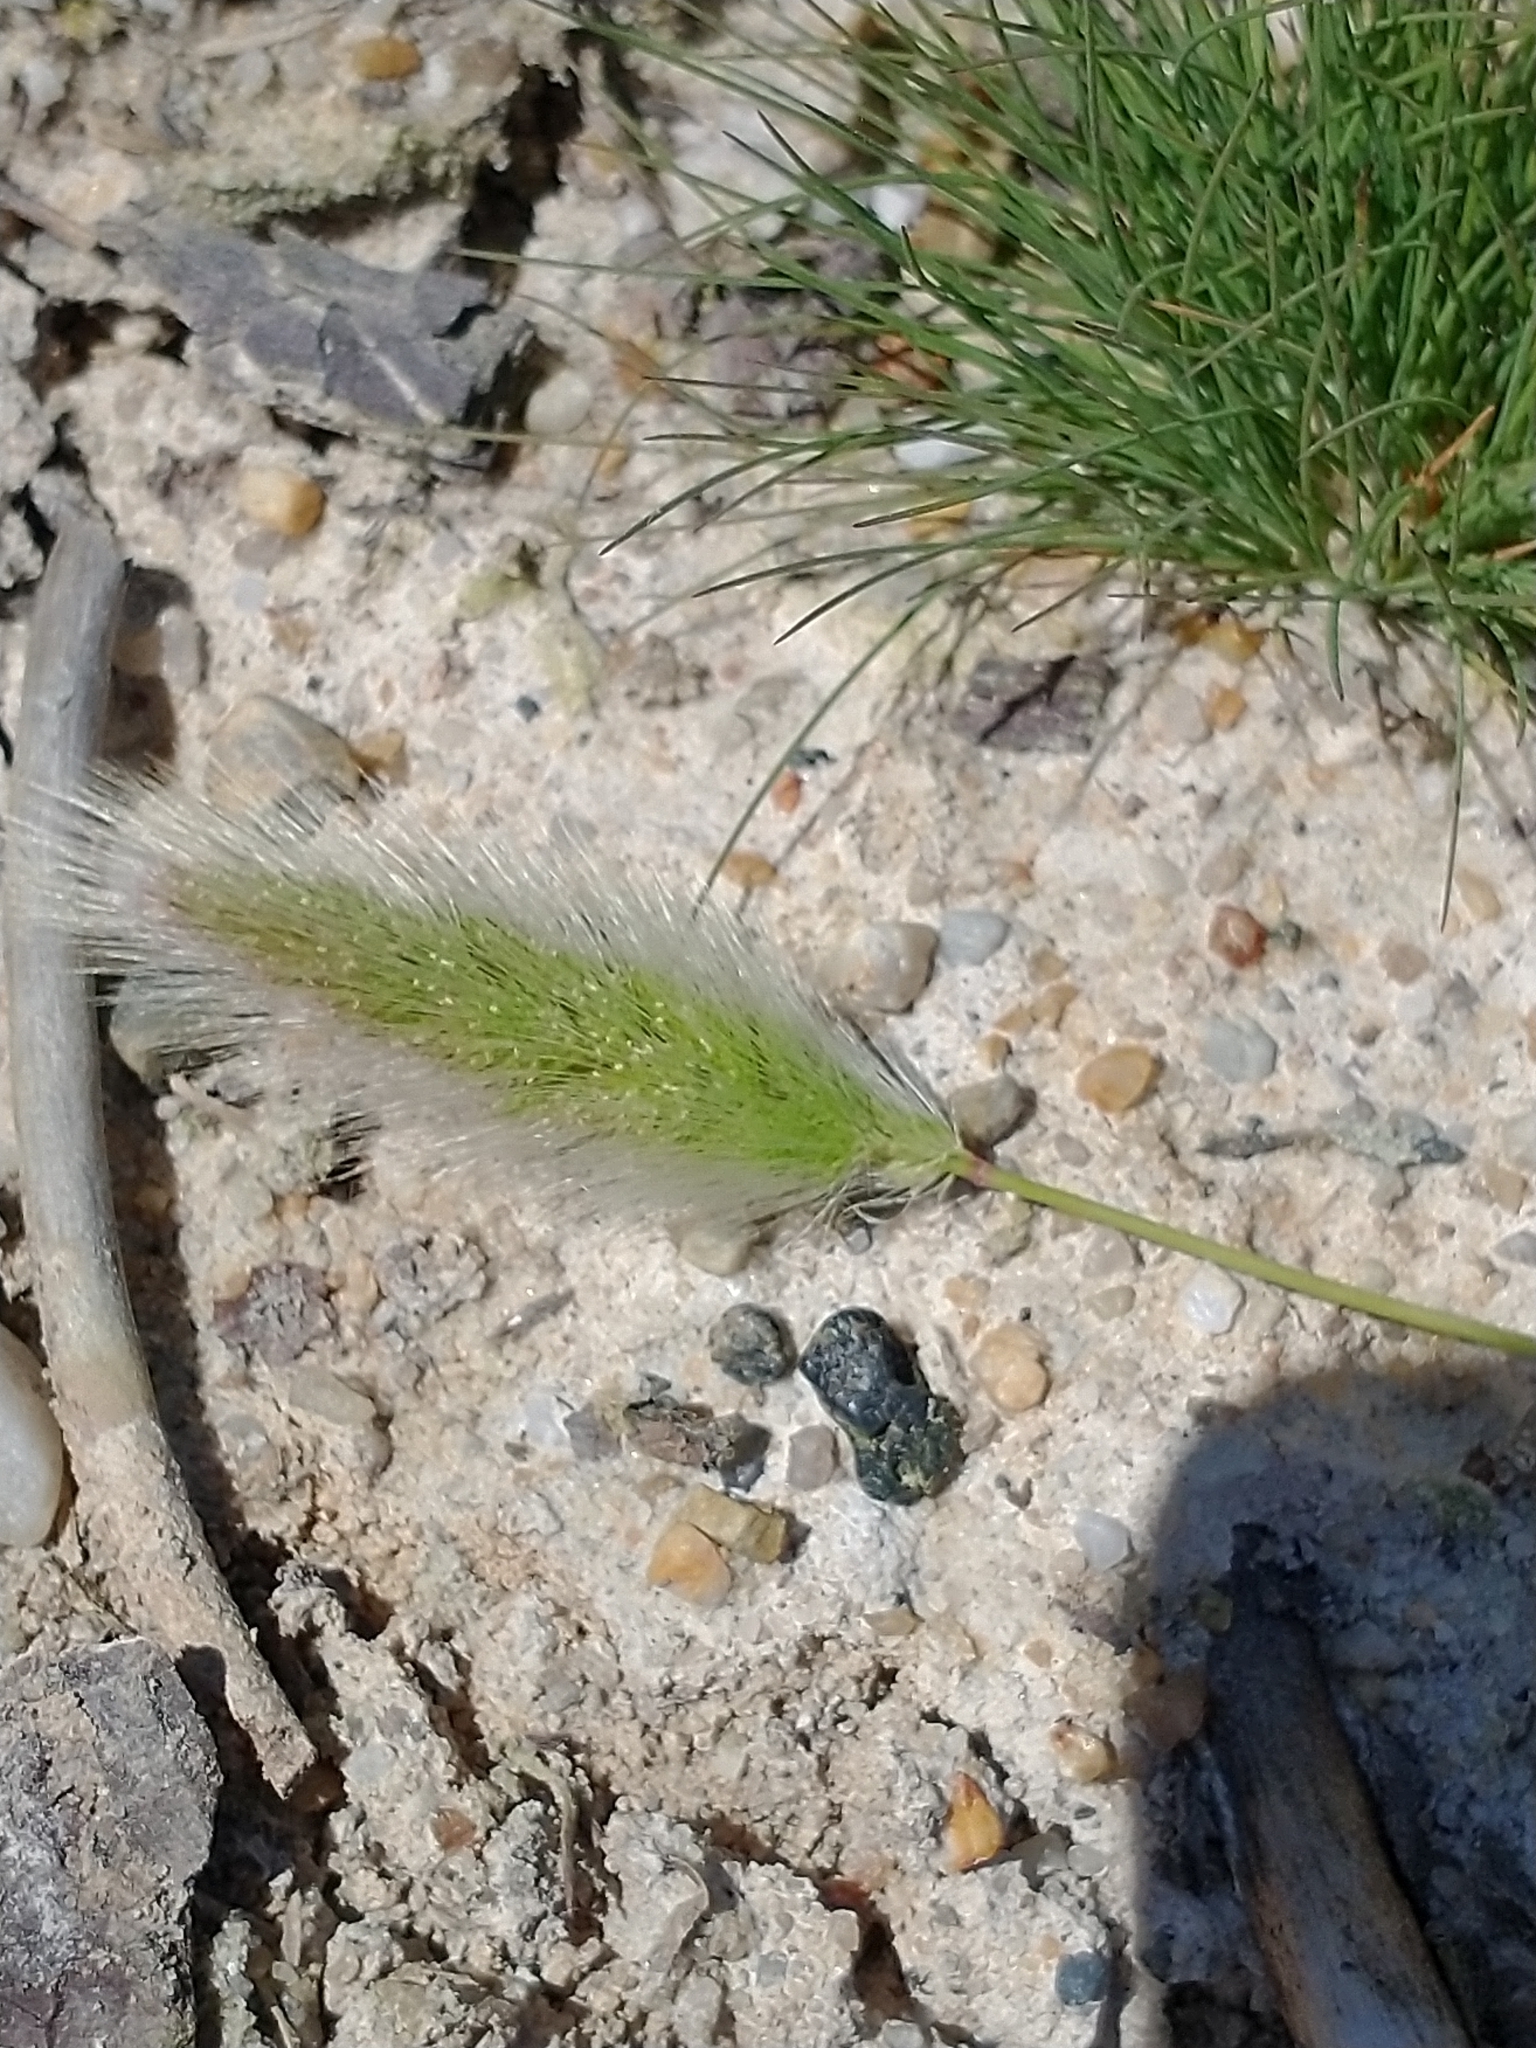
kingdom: Plantae
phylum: Tracheophyta
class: Liliopsida
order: Poales
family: Poaceae
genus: Polypogon
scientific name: Polypogon monspeliensis
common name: Annual rabbitsfoot grass
